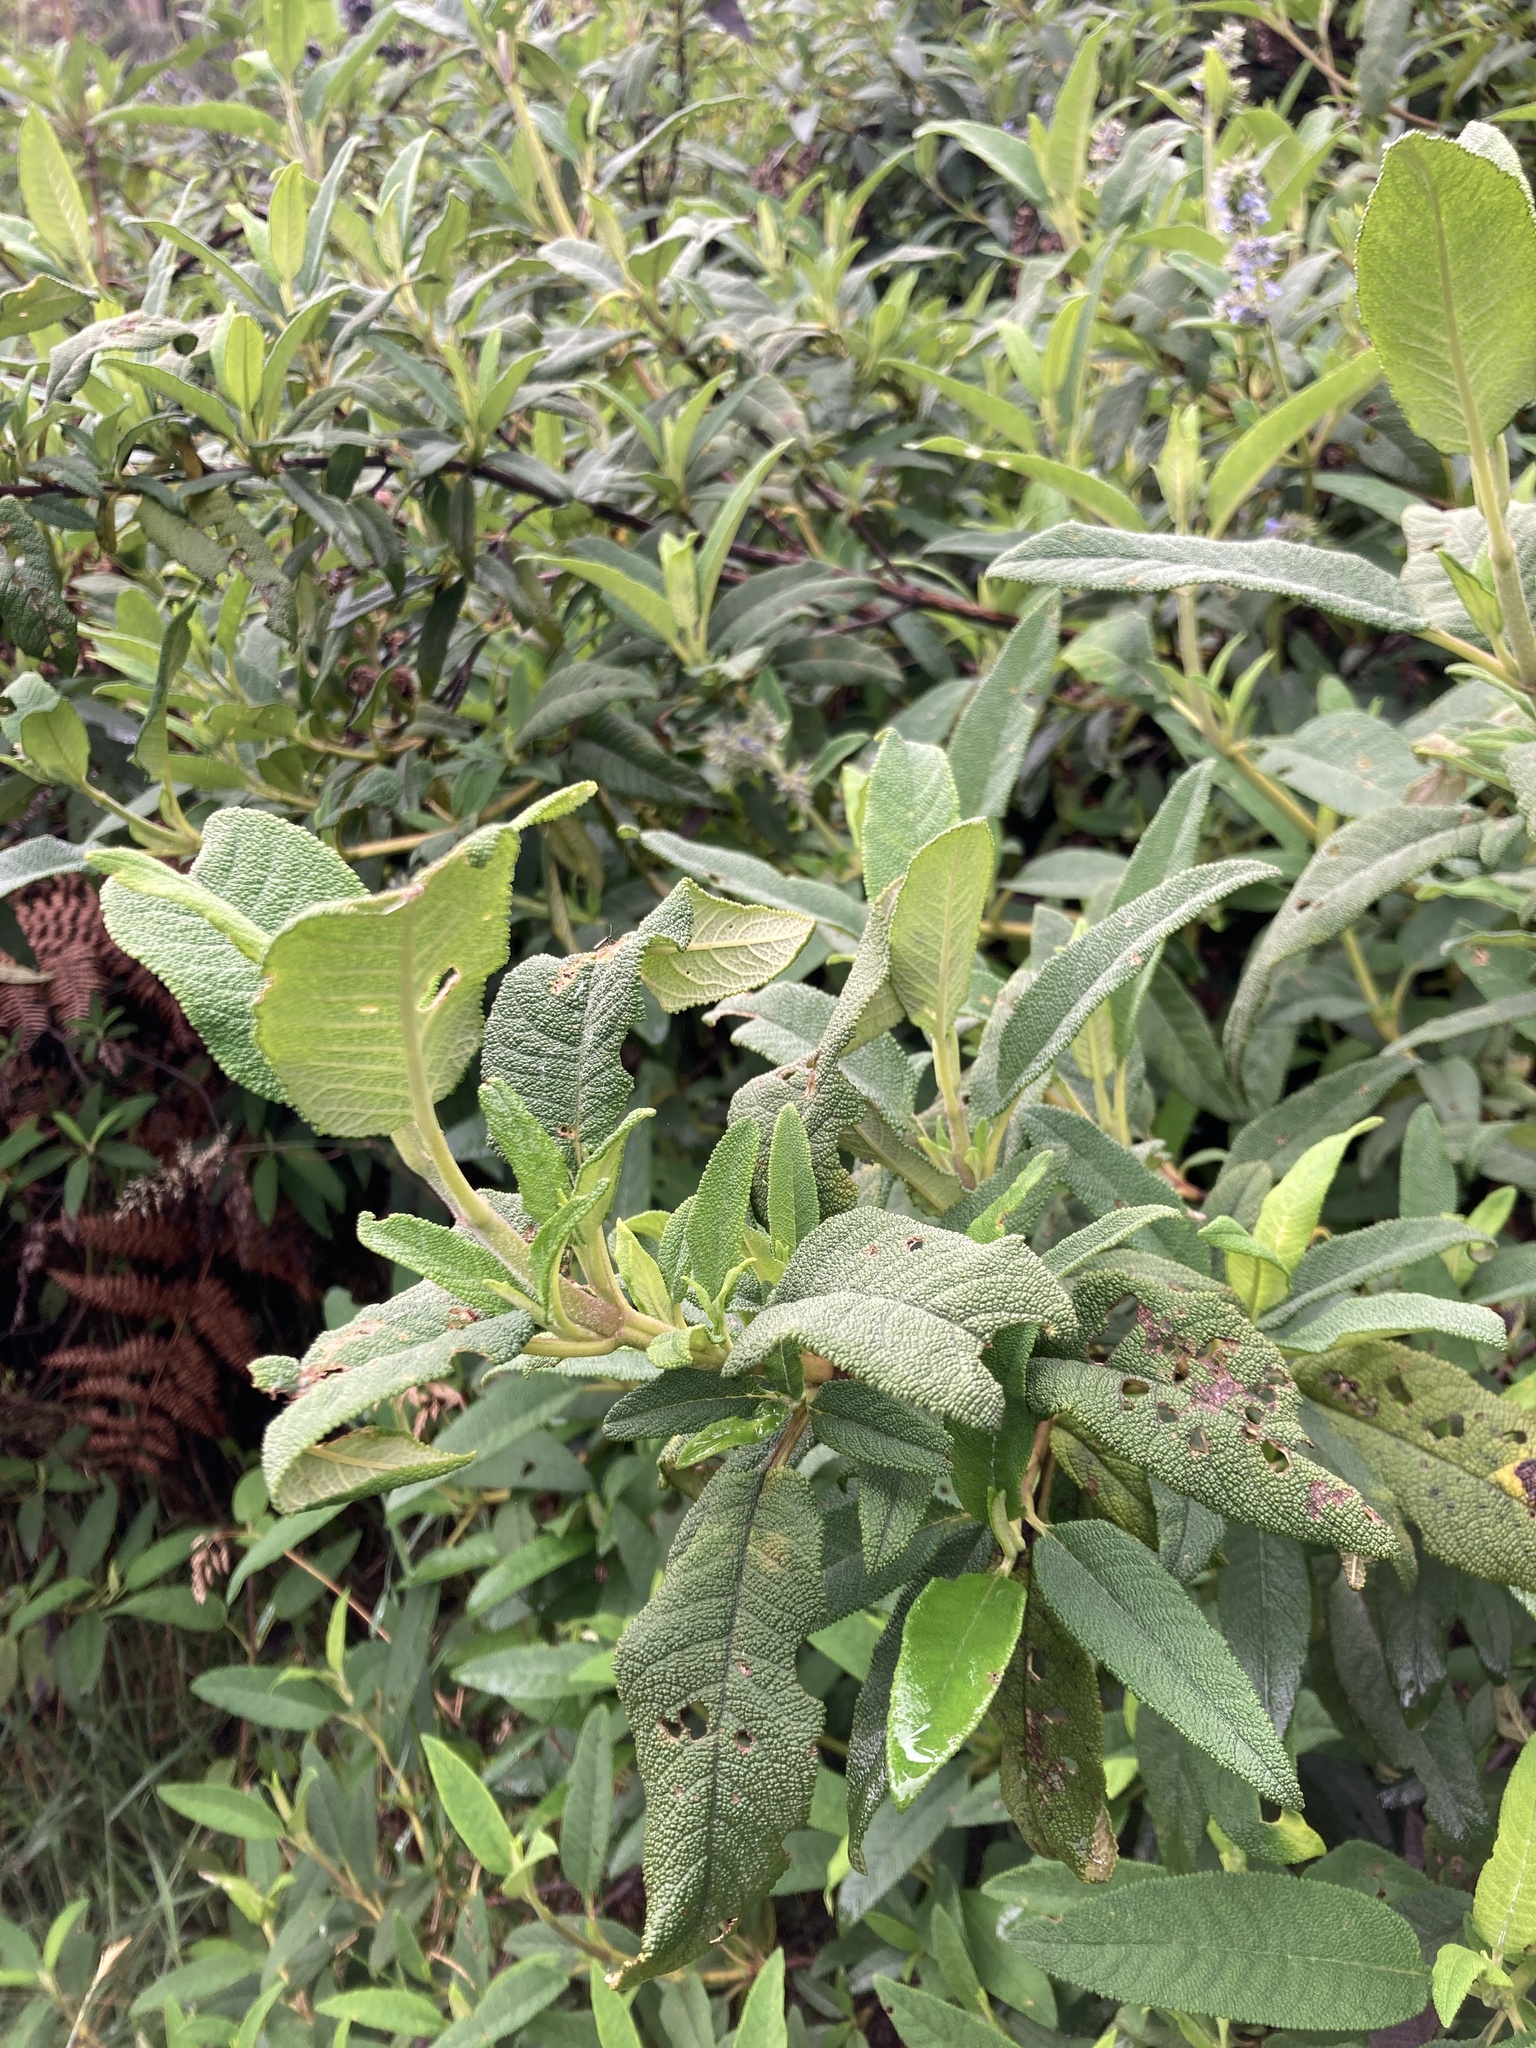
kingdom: Plantae
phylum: Tracheophyta
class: Magnoliopsida
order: Lamiales
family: Lamiaceae
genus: Lepechinia
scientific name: Lepechinia salviifolia
